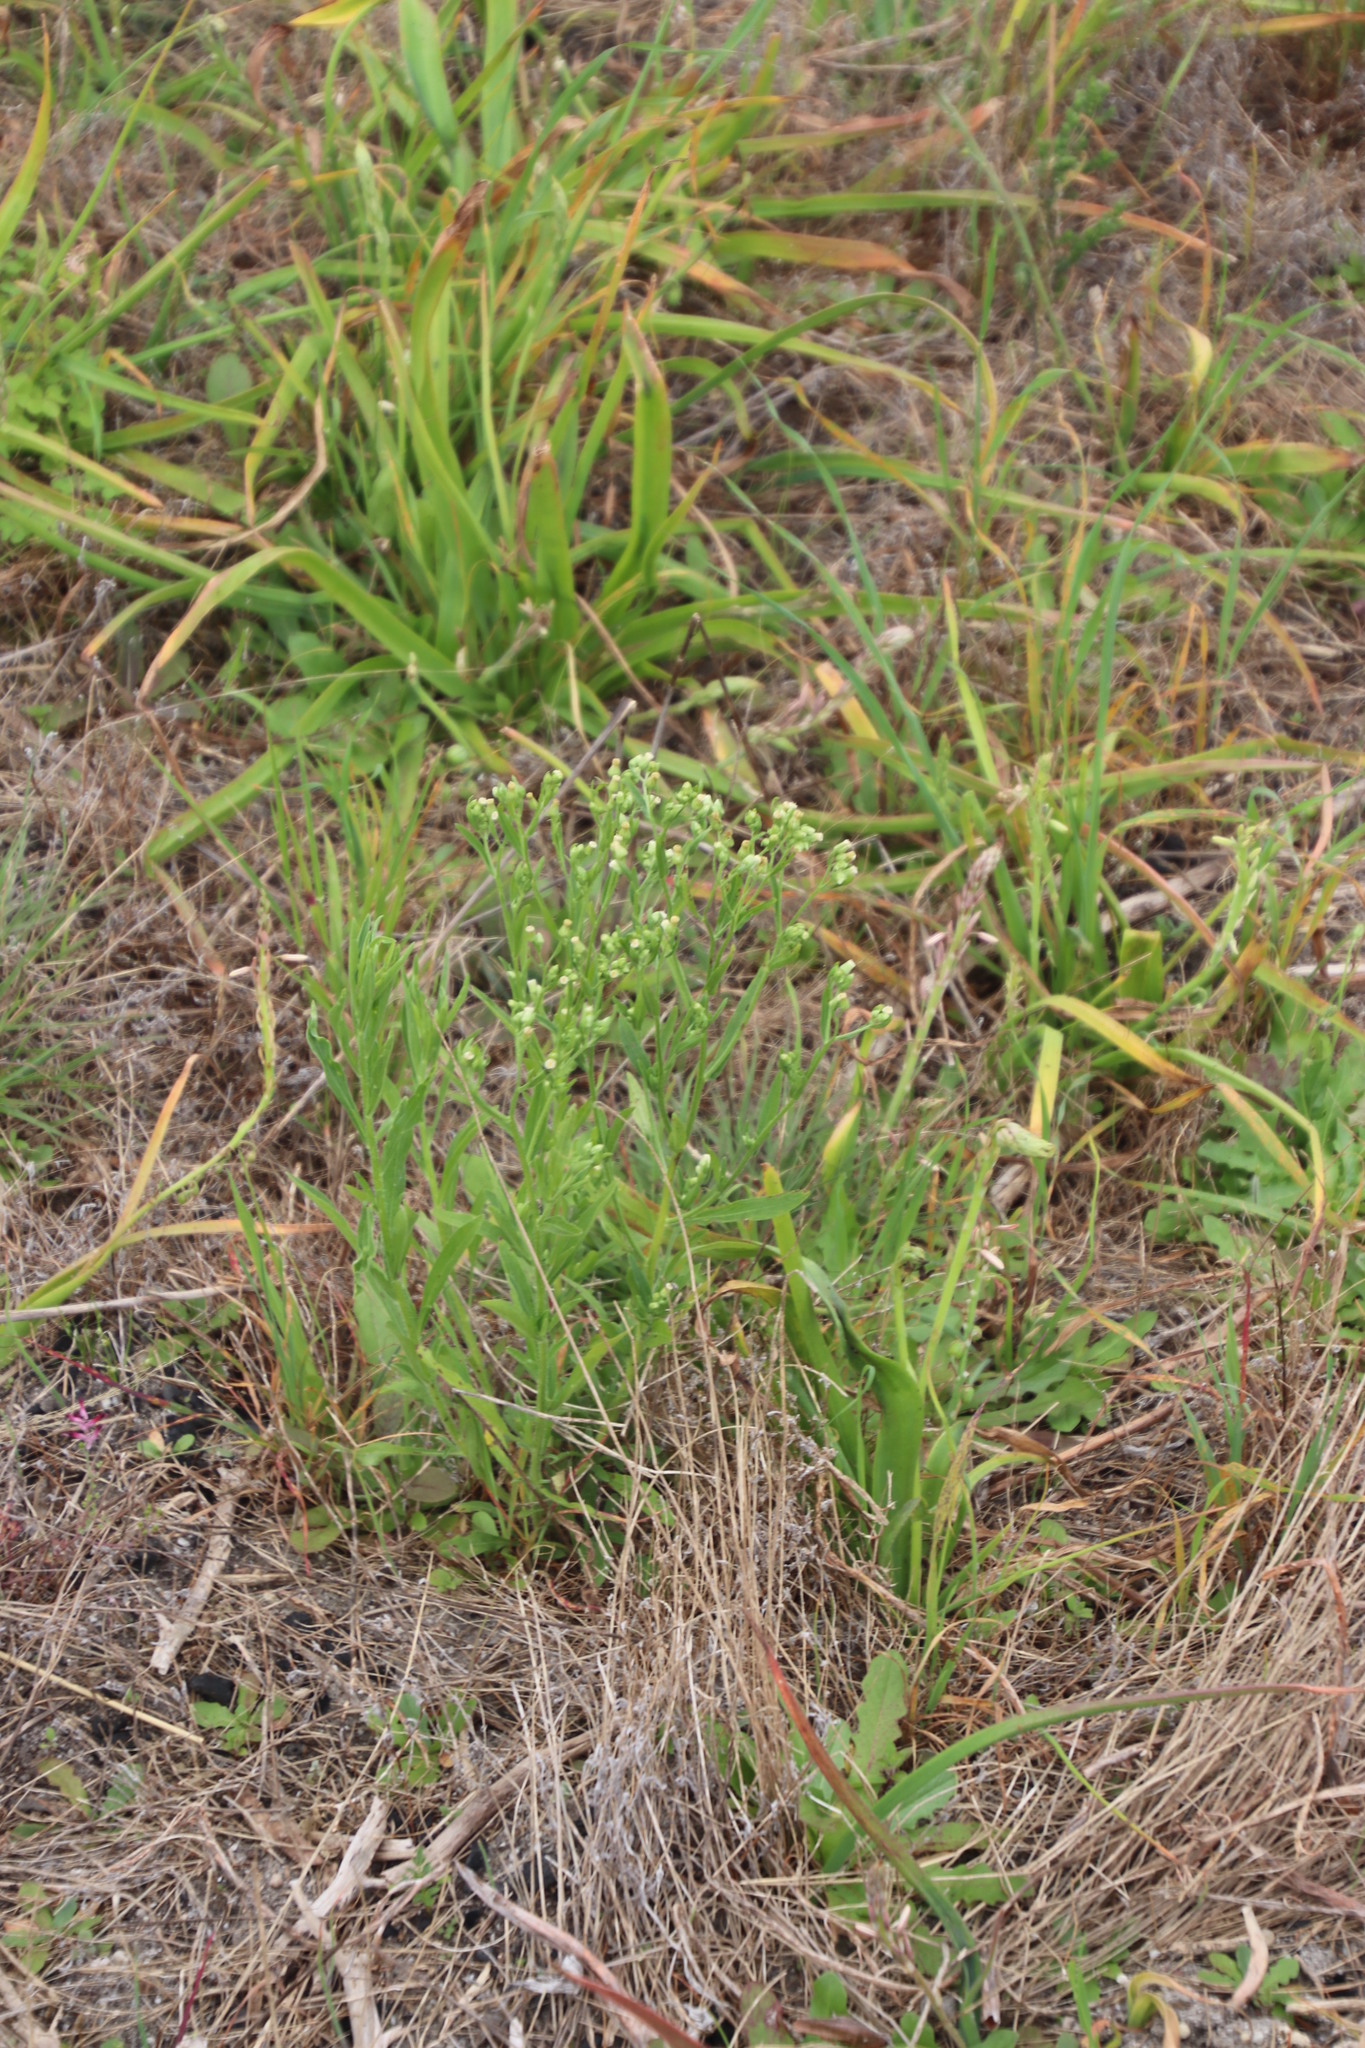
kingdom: Plantae
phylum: Tracheophyta
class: Magnoliopsida
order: Asterales
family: Asteraceae
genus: Erigeron
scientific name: Erigeron sumatrensis
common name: Daisy
